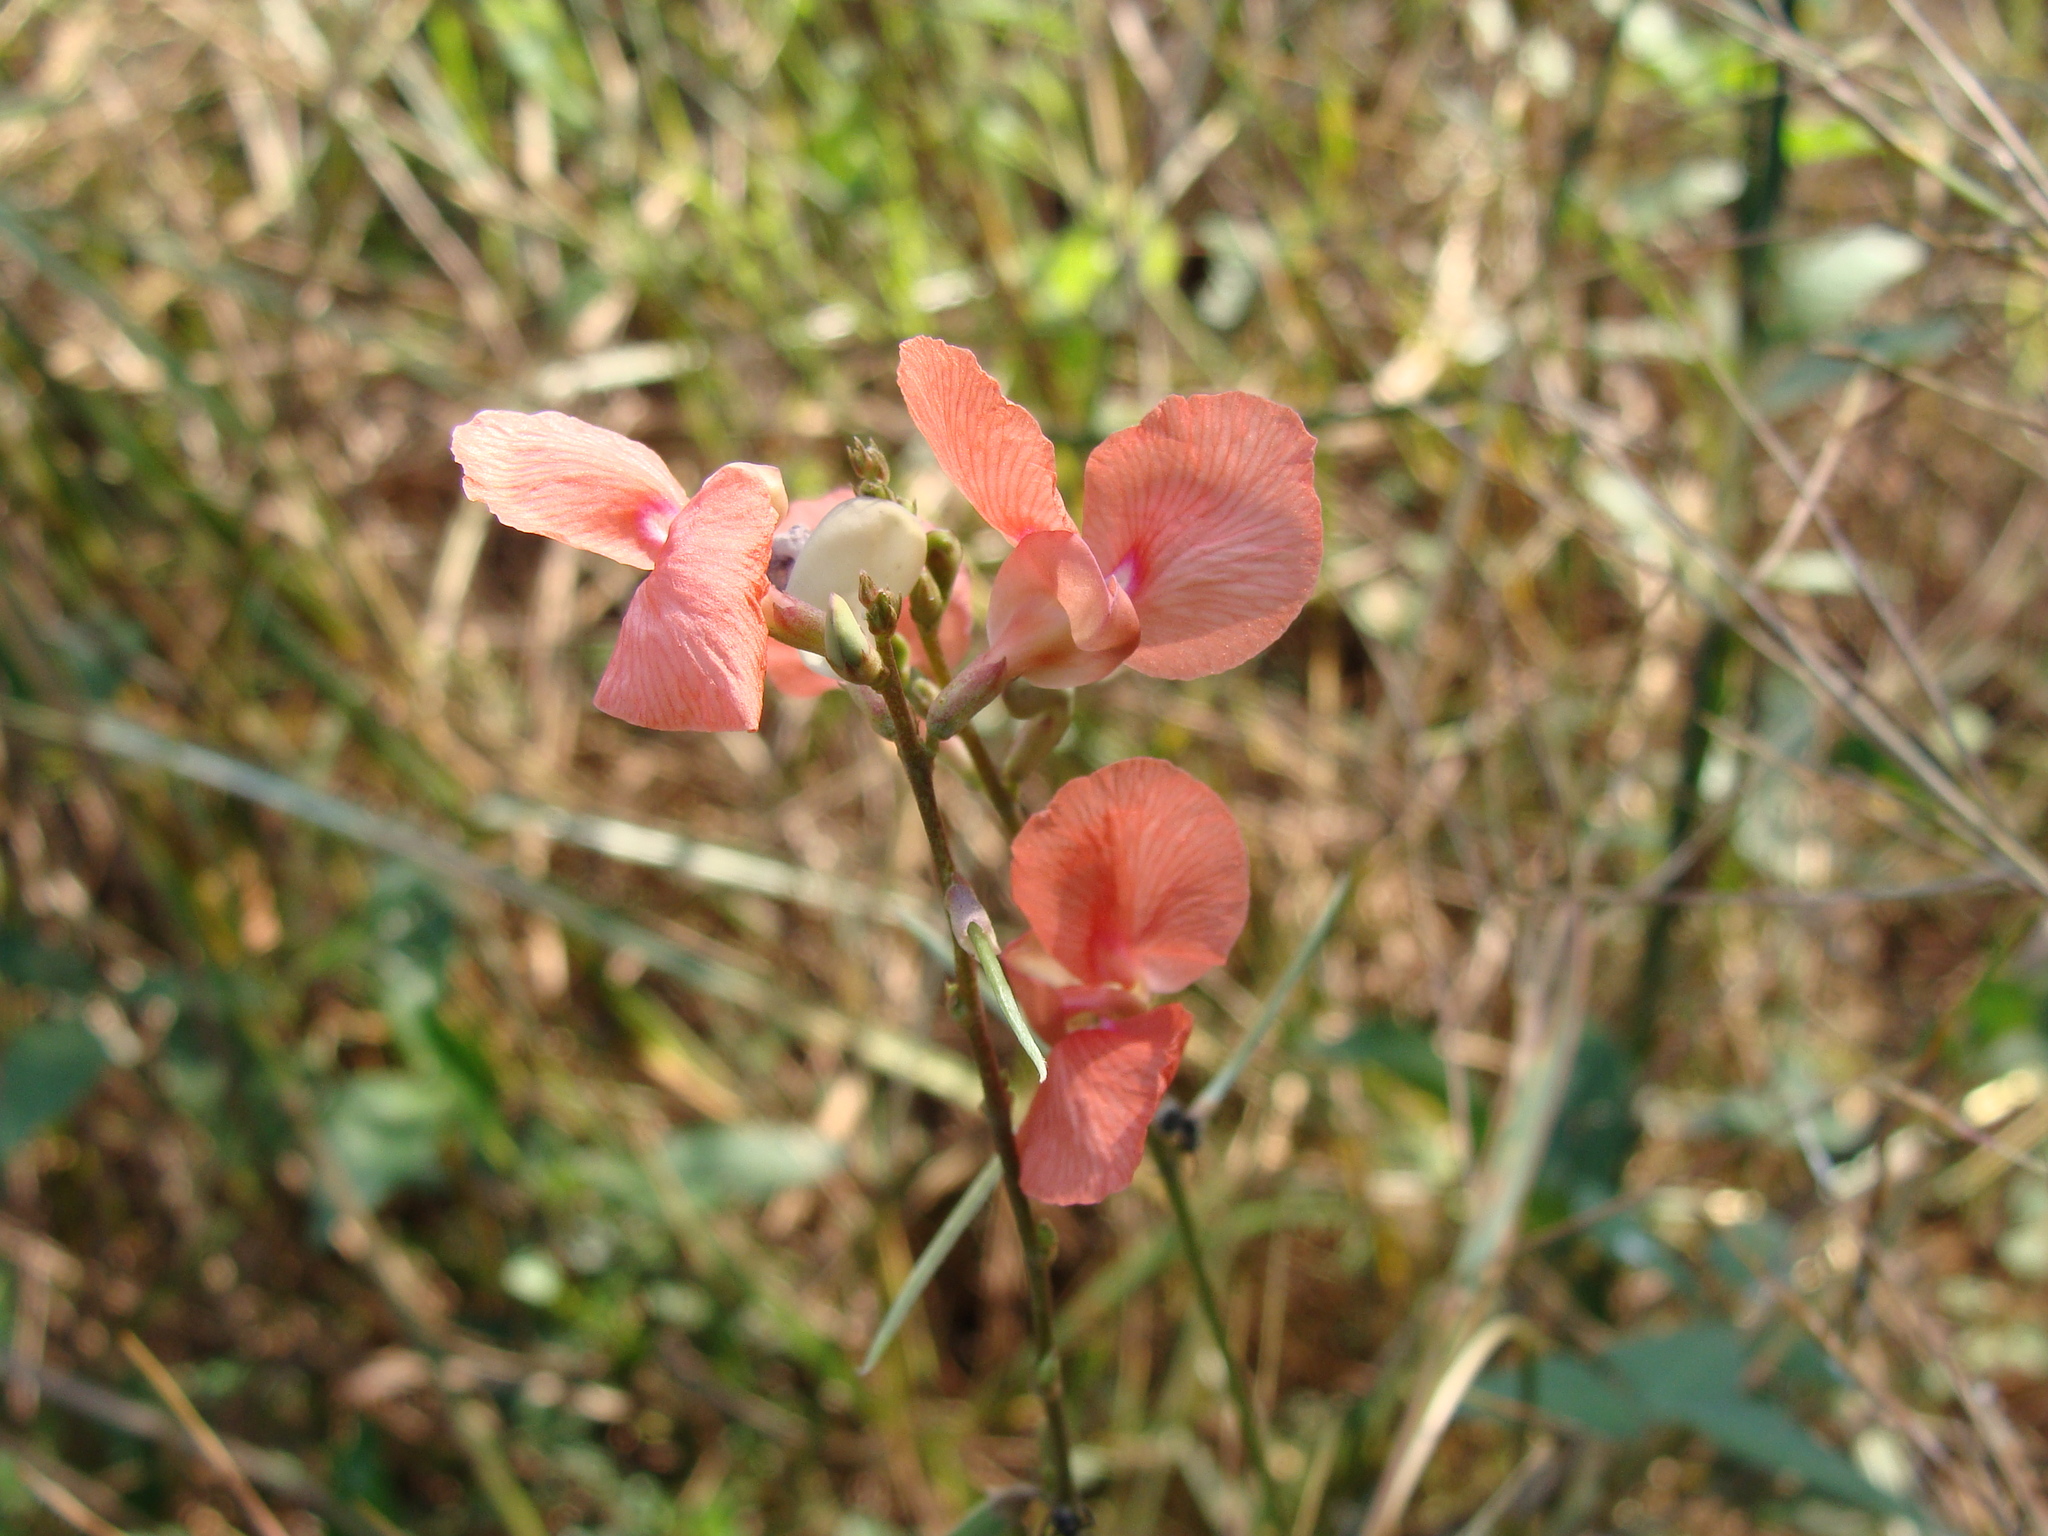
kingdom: Plantae
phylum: Tracheophyta
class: Magnoliopsida
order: Fabales
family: Fabaceae
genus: Macroptilium
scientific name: Macroptilium gracile
